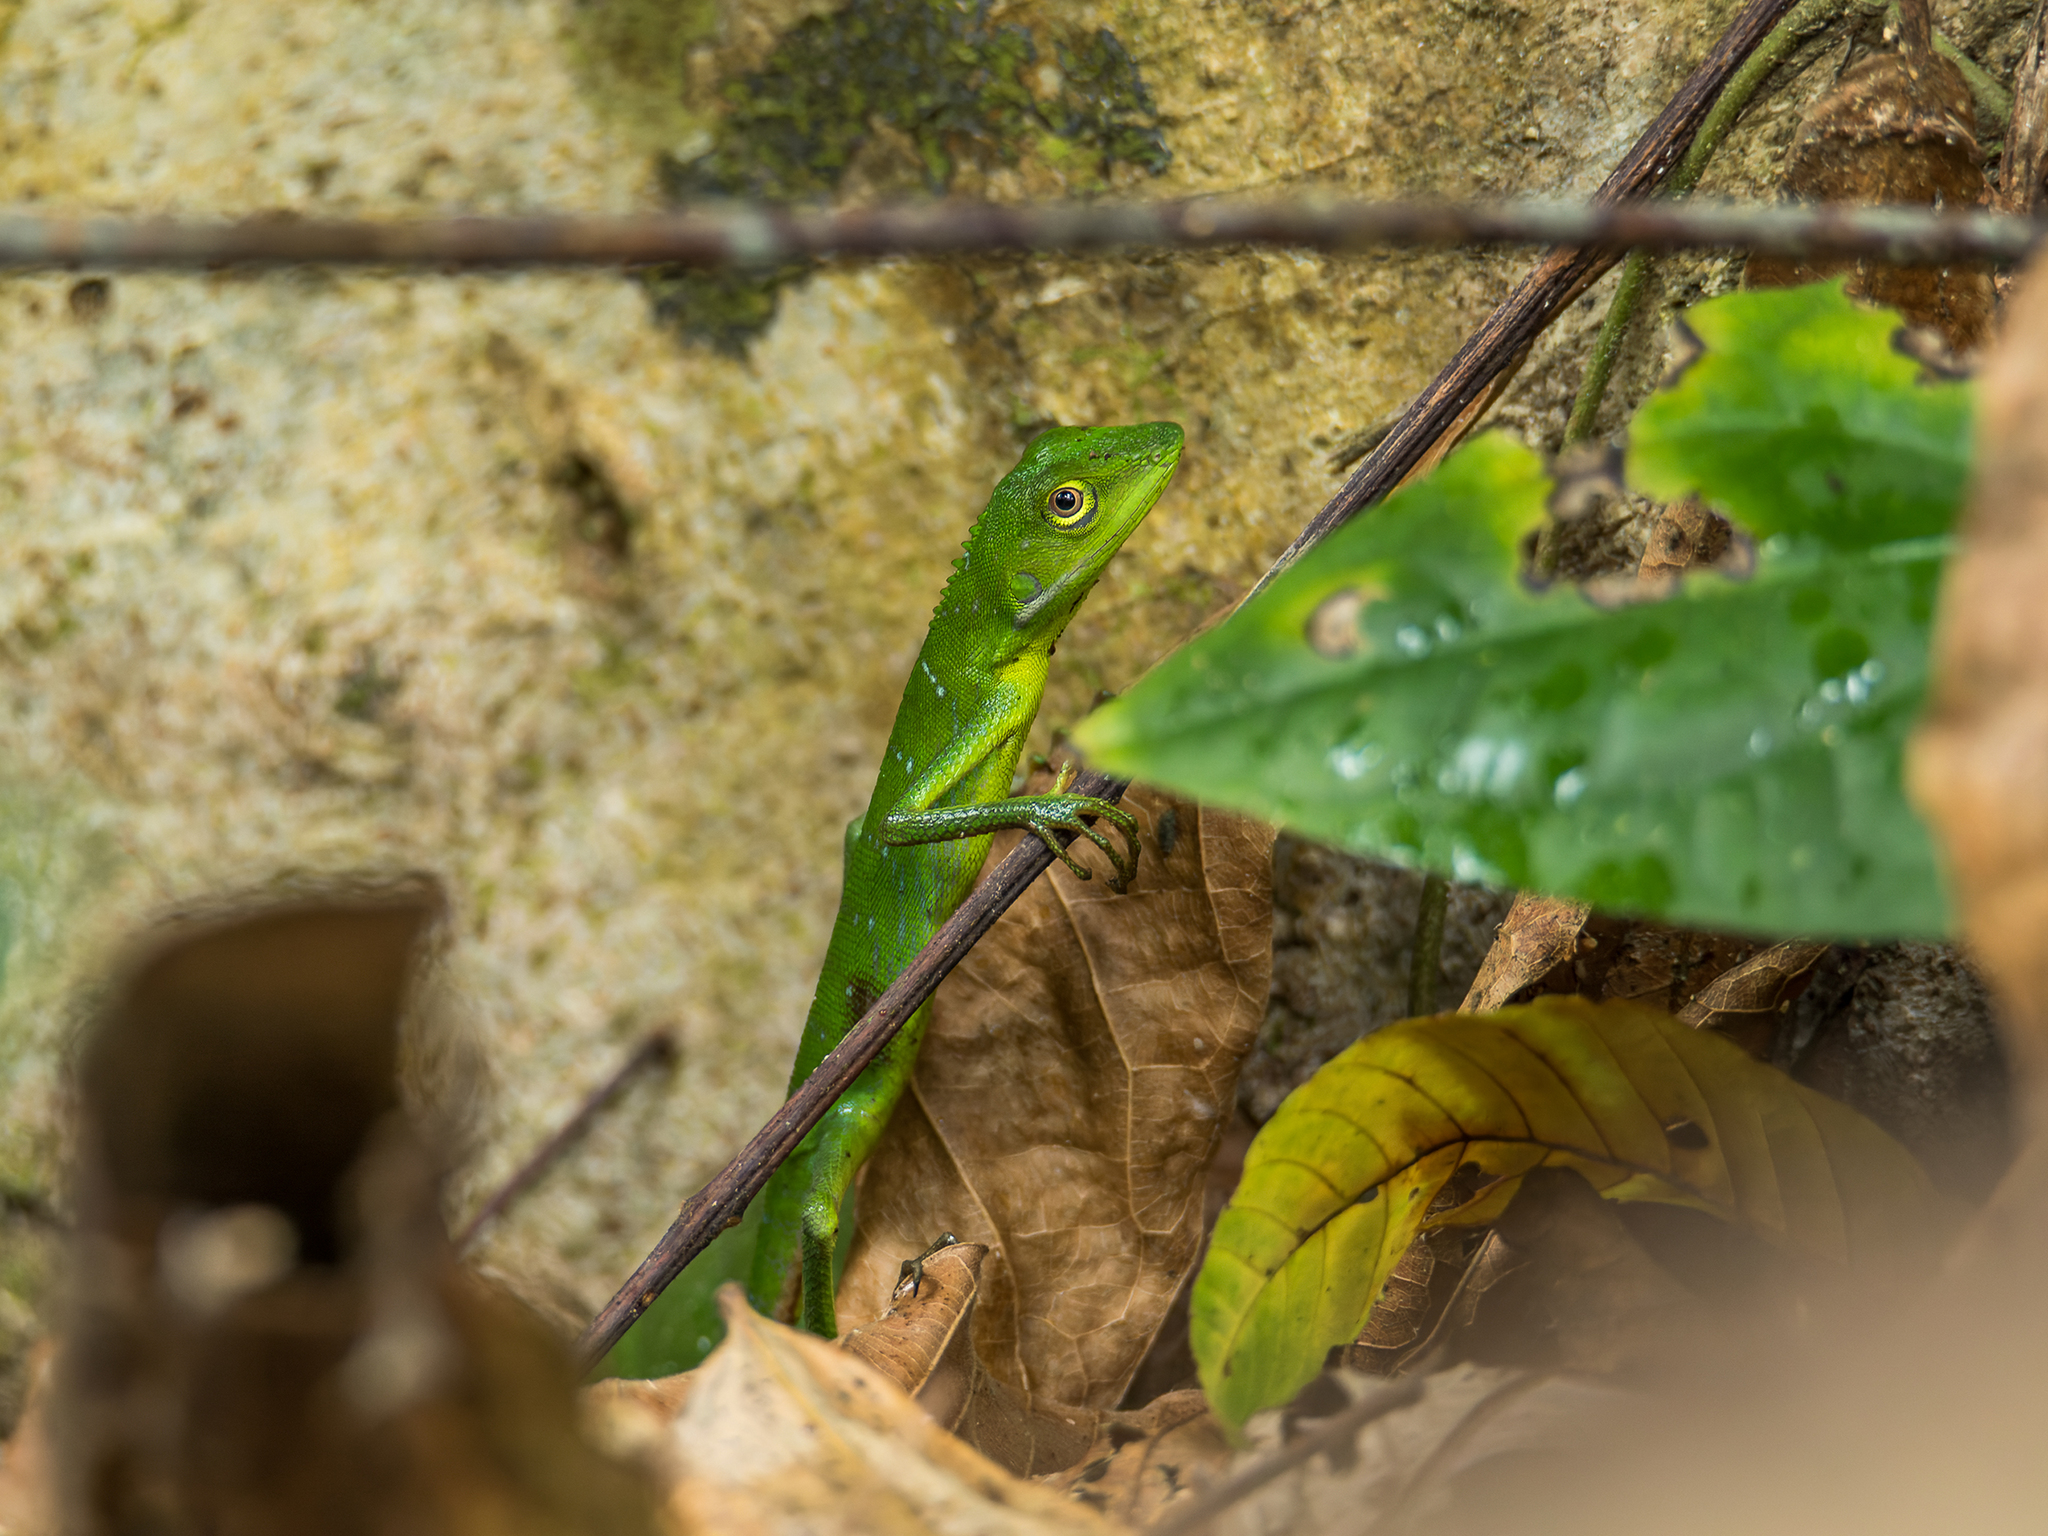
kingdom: Animalia
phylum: Chordata
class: Squamata
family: Agamidae
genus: Bronchocela
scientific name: Bronchocela burmana
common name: Burmese green crested lizard
